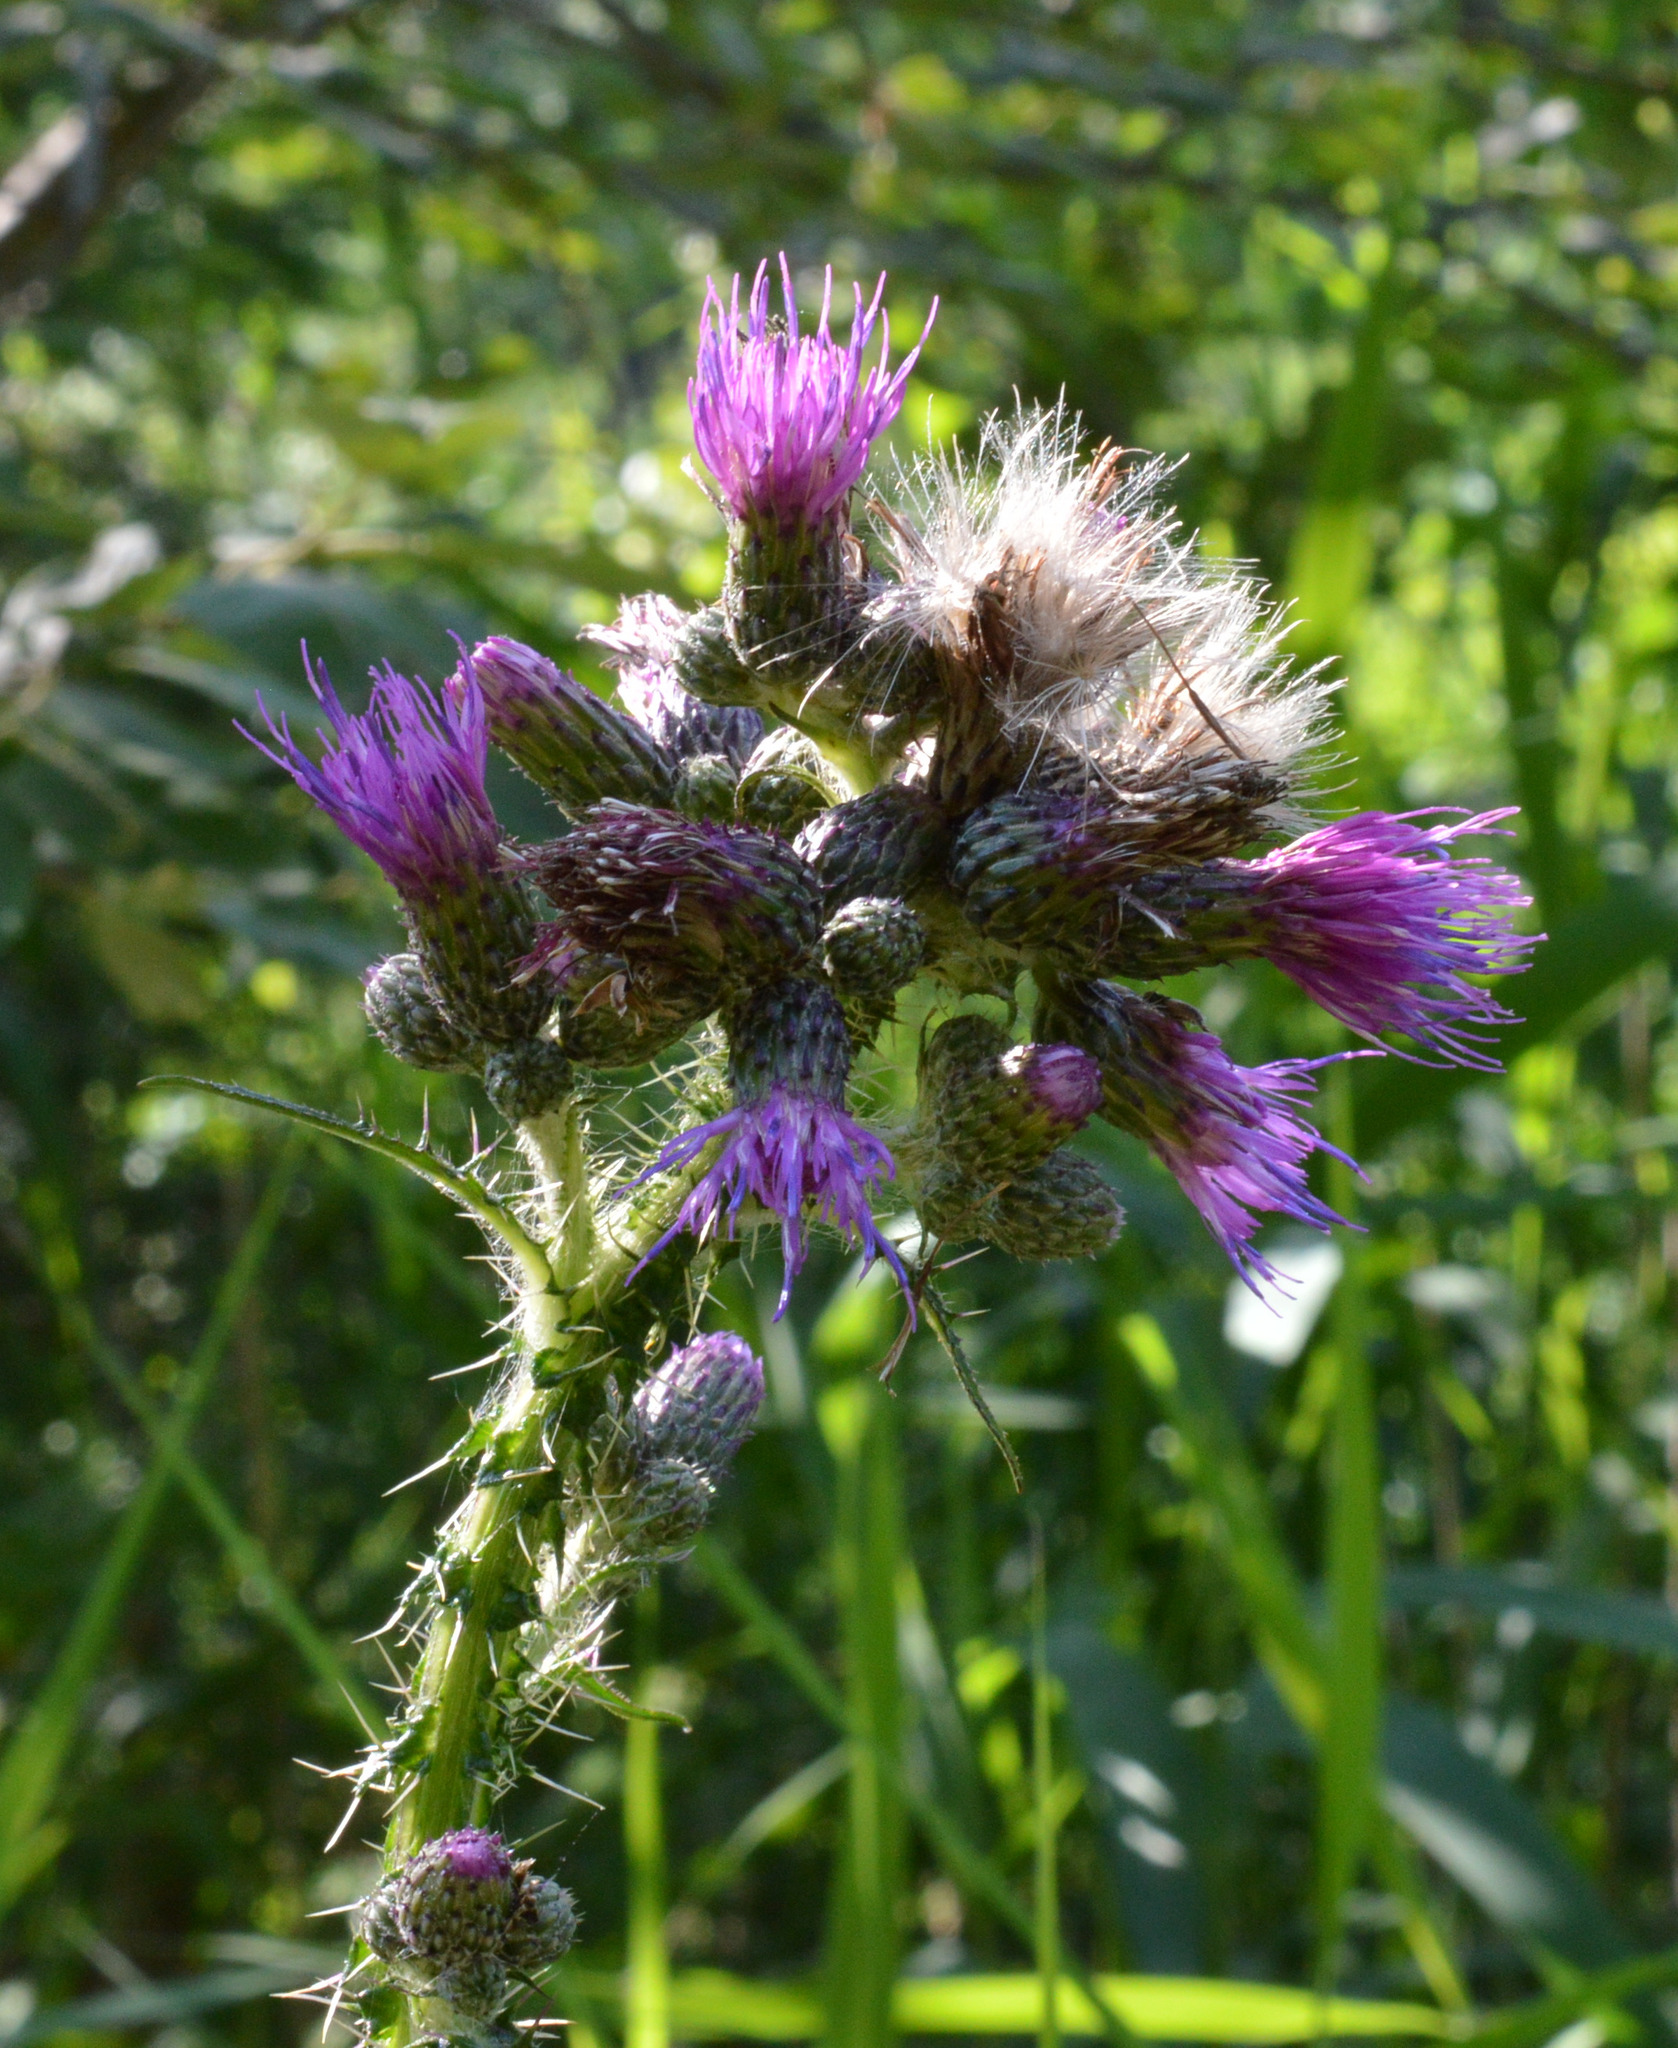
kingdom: Plantae
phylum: Tracheophyta
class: Magnoliopsida
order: Asterales
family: Asteraceae
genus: Cirsium
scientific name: Cirsium palustre
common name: Marsh thistle
